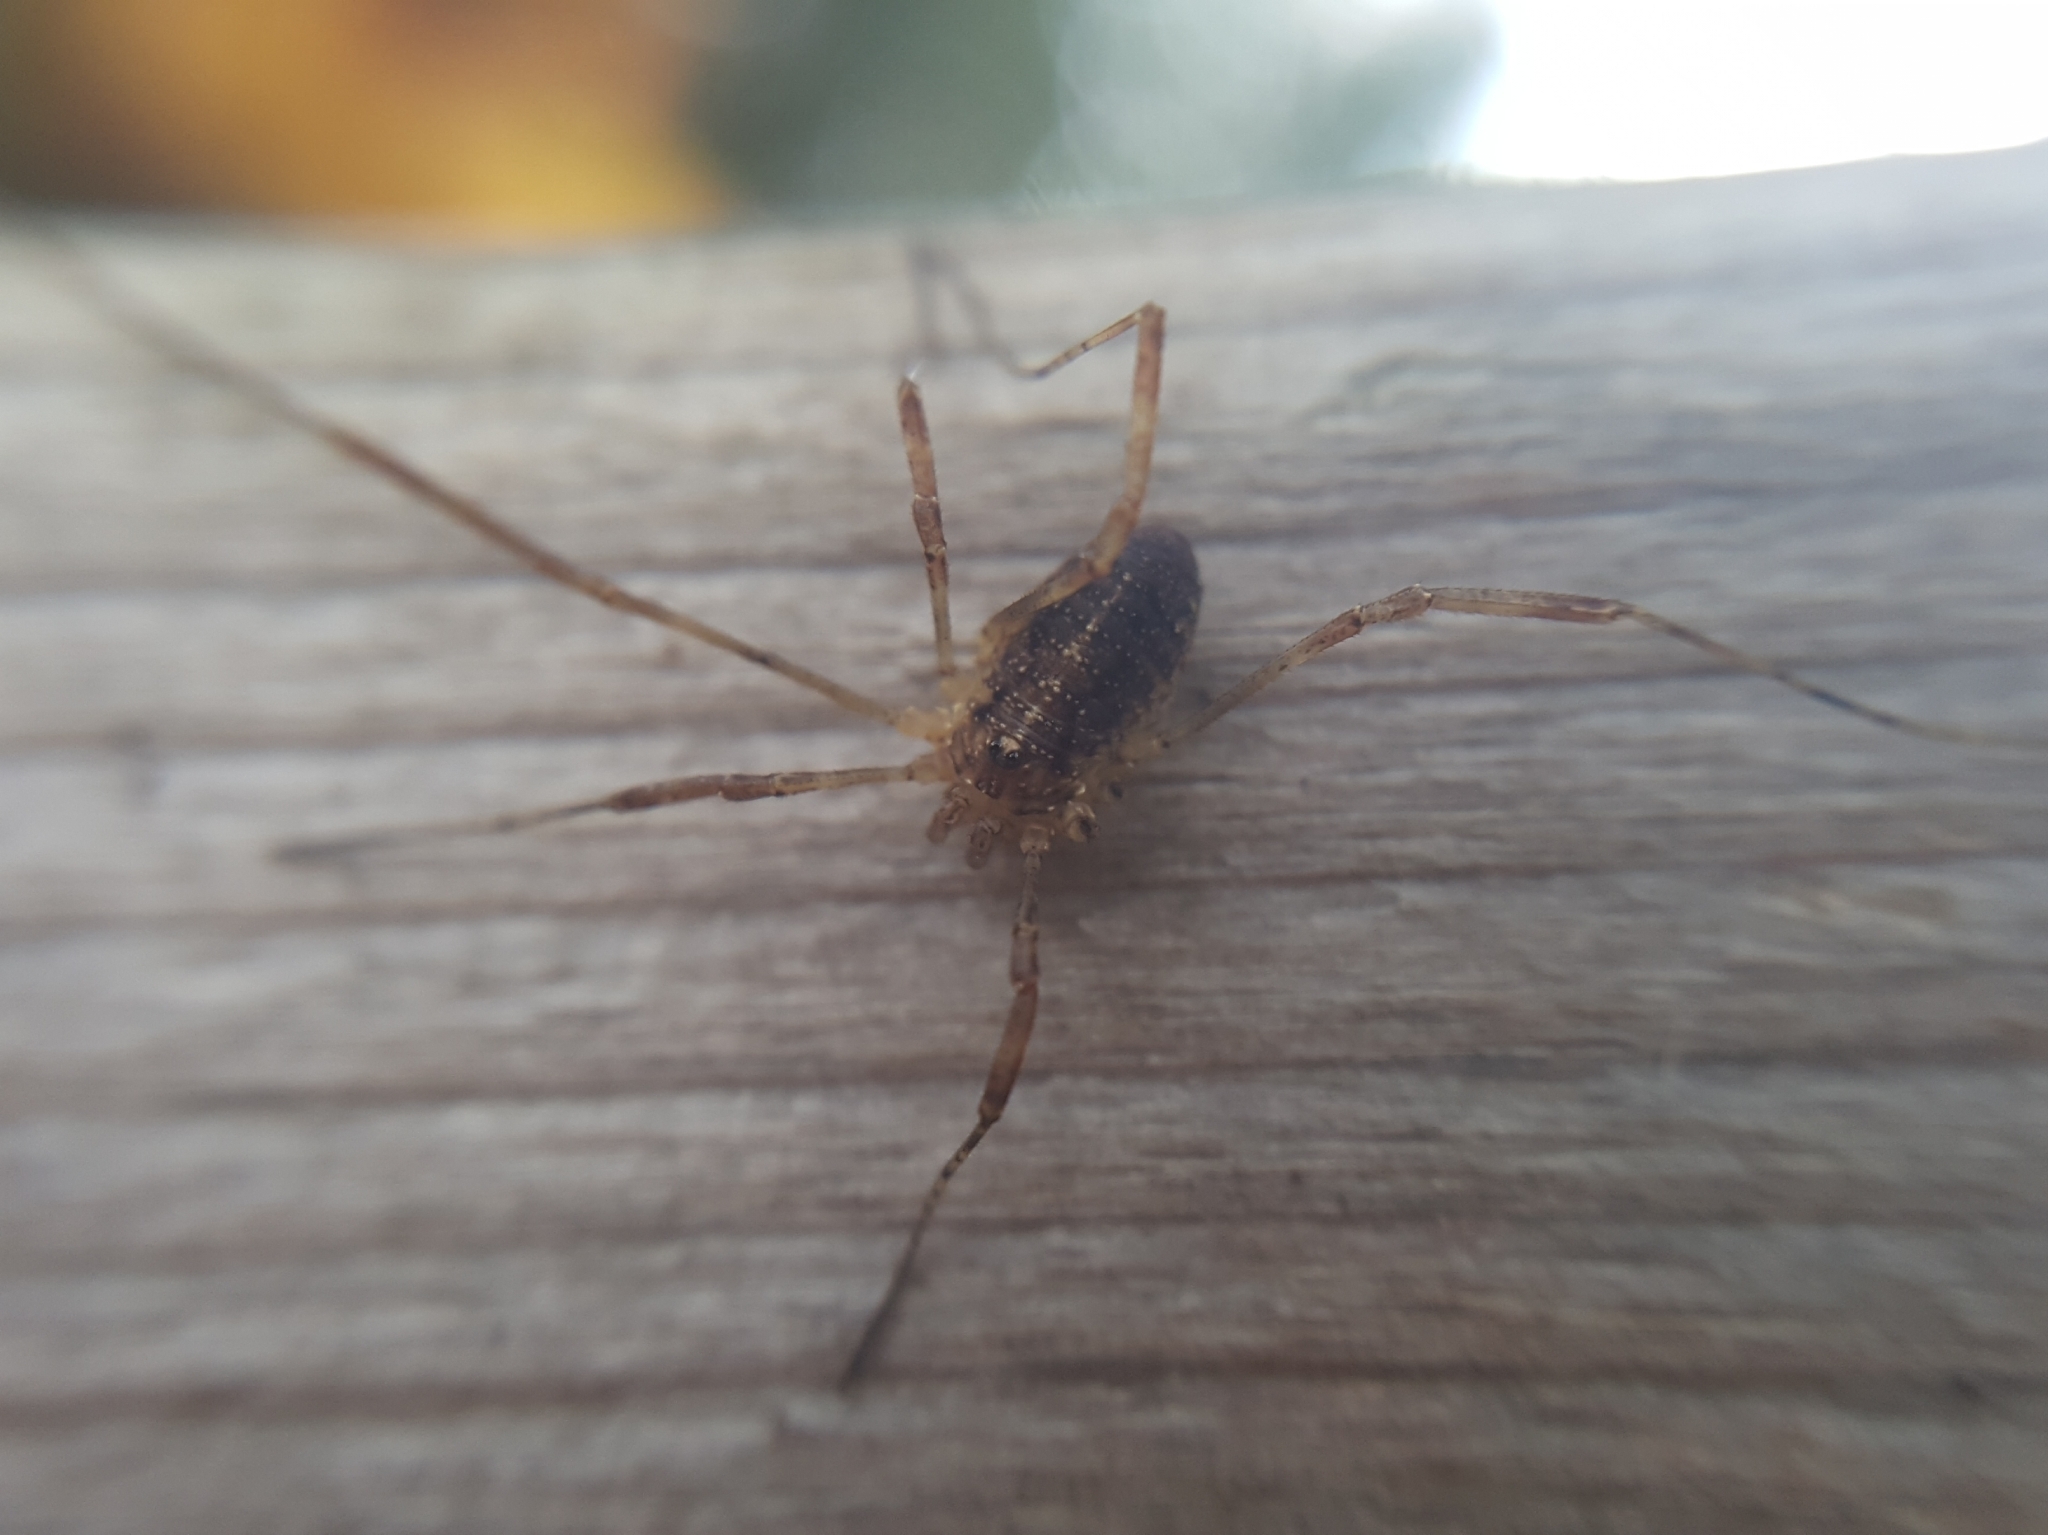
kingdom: Animalia
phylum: Arthropoda
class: Arachnida
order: Opiliones
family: Phalangiidae
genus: Paroligolophus
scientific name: Paroligolophus agrestis
